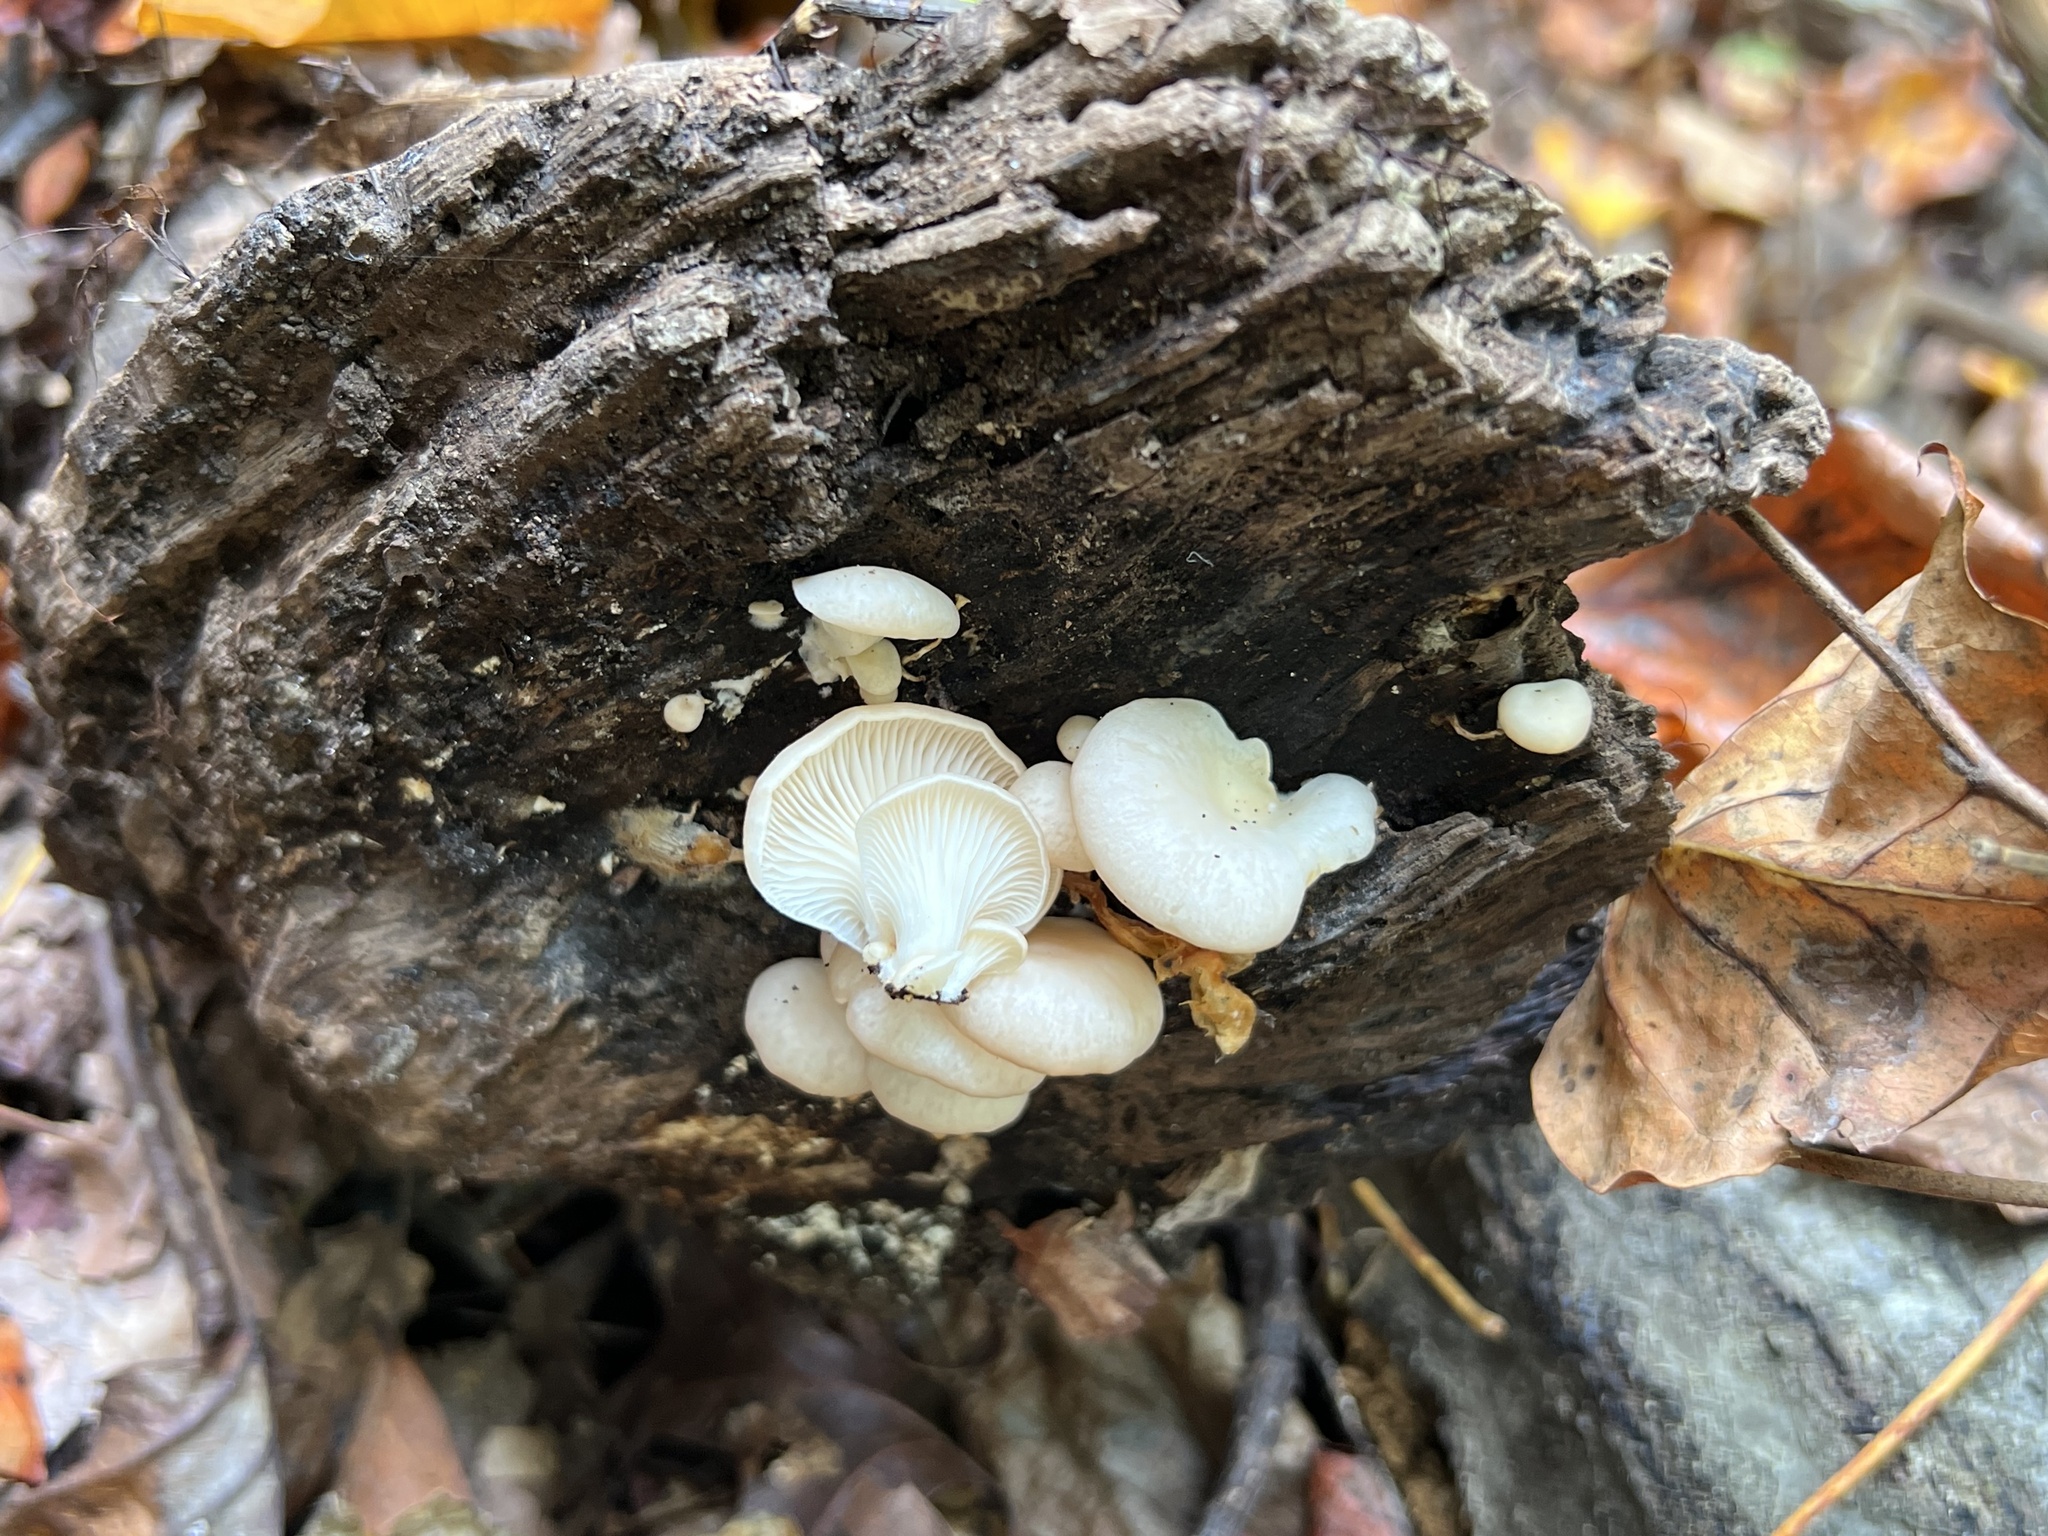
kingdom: Fungi
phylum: Basidiomycota
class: Agaricomycetes
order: Agaricales
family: Pleurotaceae
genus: Pleurotus
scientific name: Pleurotus ostreatus
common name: Oyster mushroom
